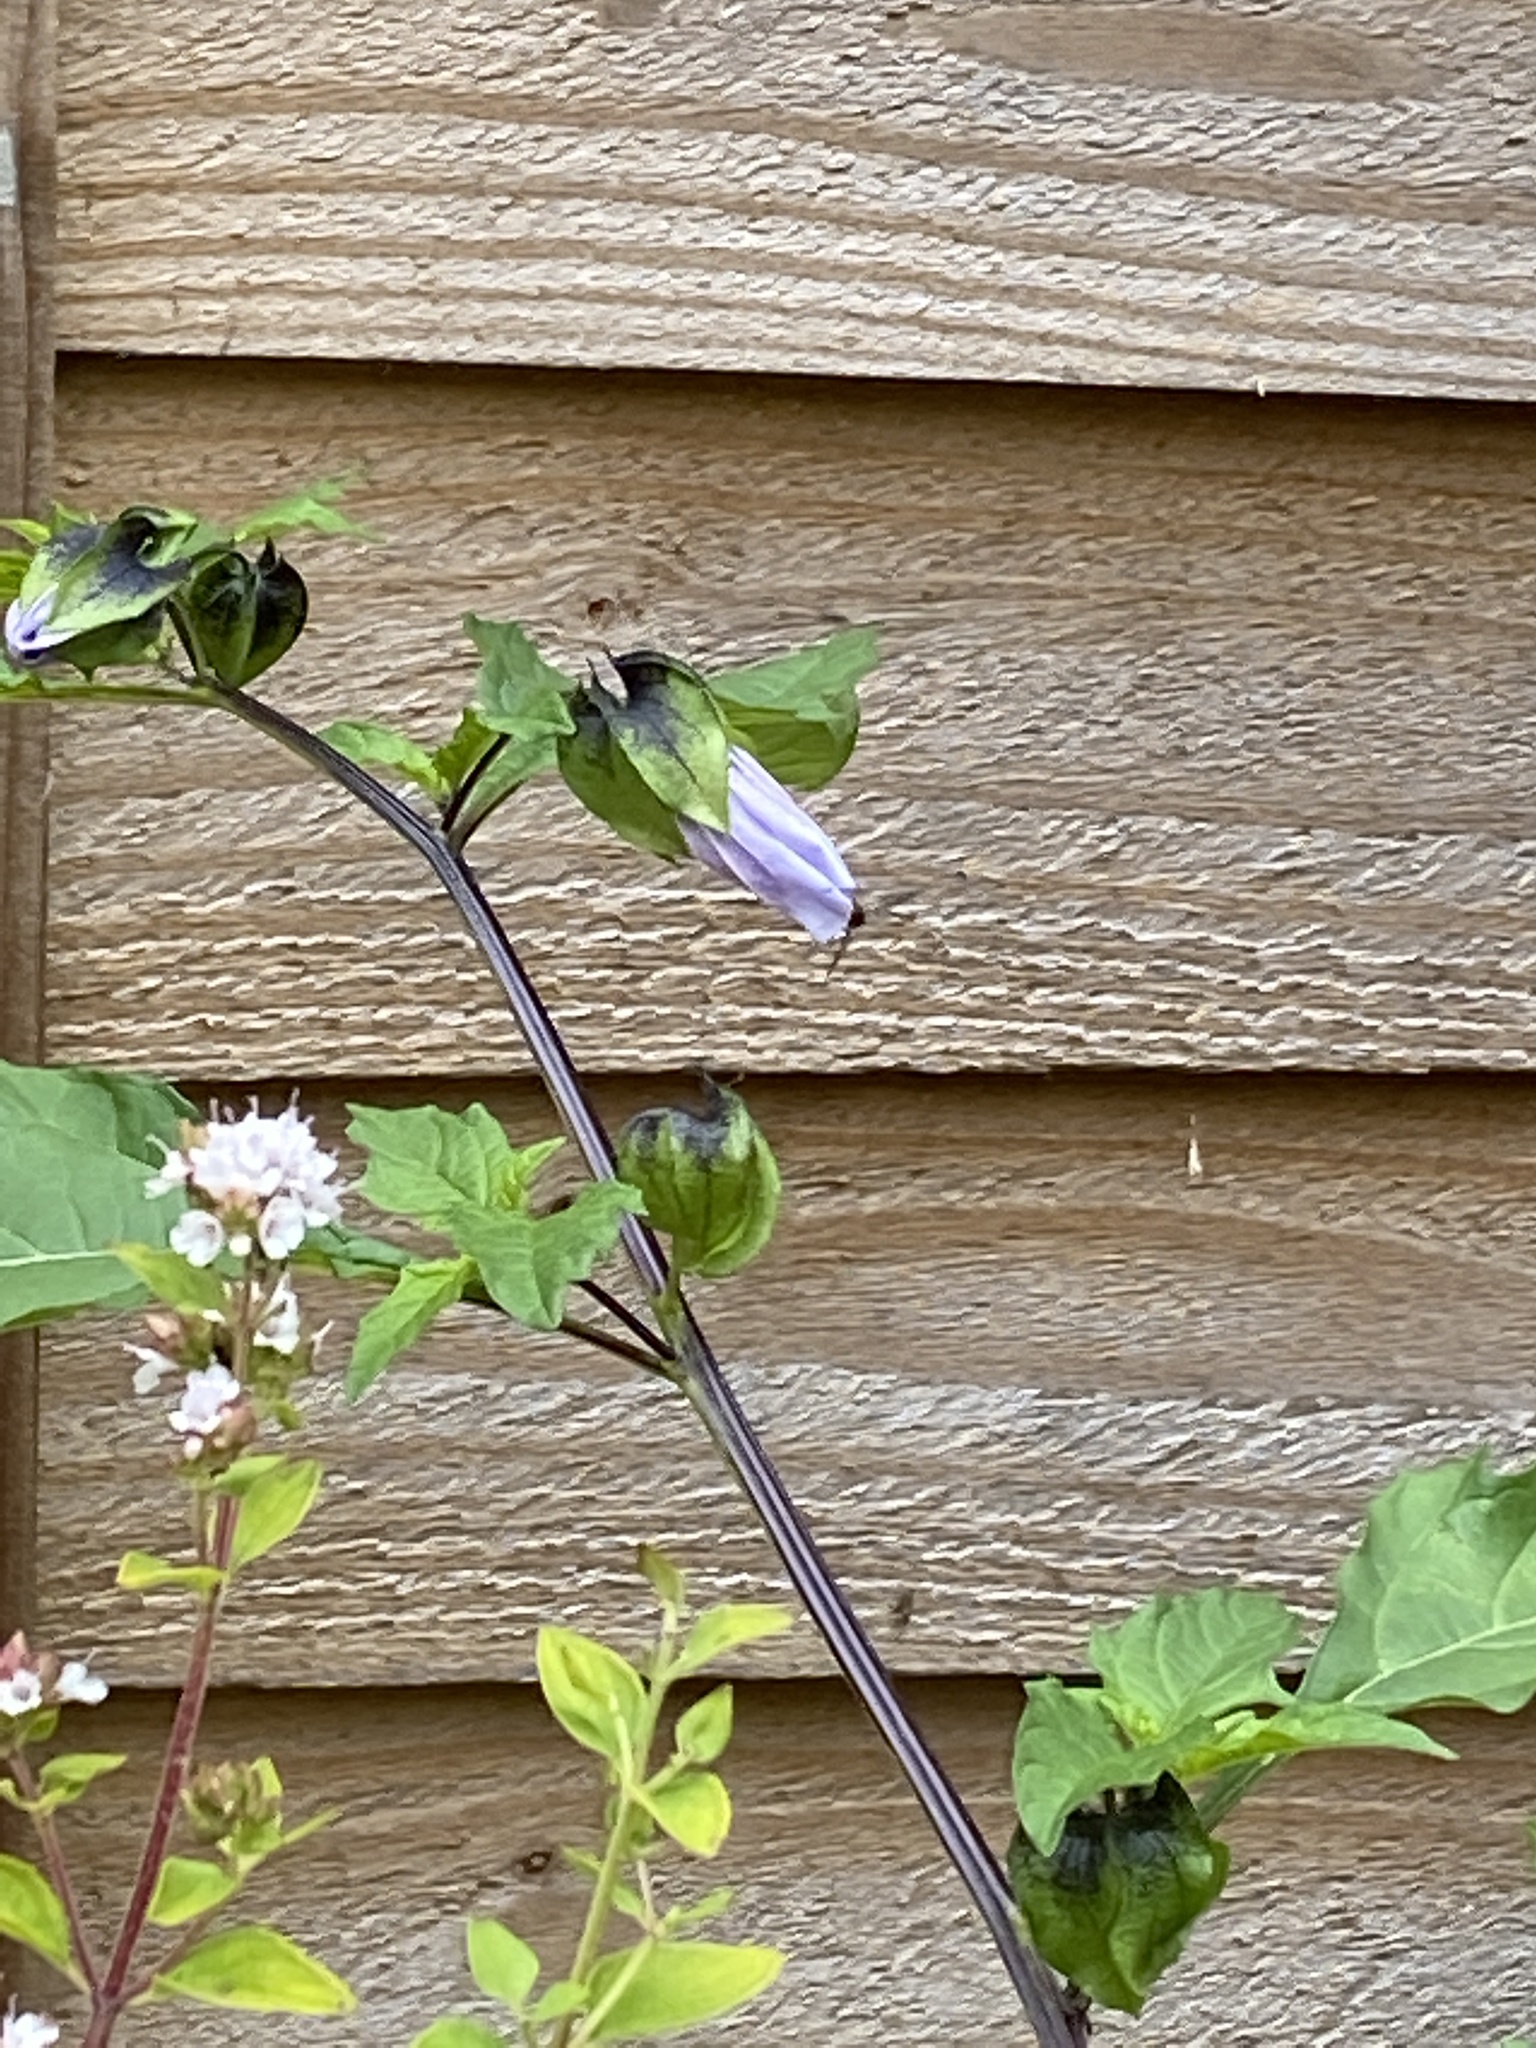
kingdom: Animalia
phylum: Arthropoda
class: Insecta
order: Diptera
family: Syrphidae
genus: Episyrphus
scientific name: Episyrphus balteatus
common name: Marmalade hoverfly
